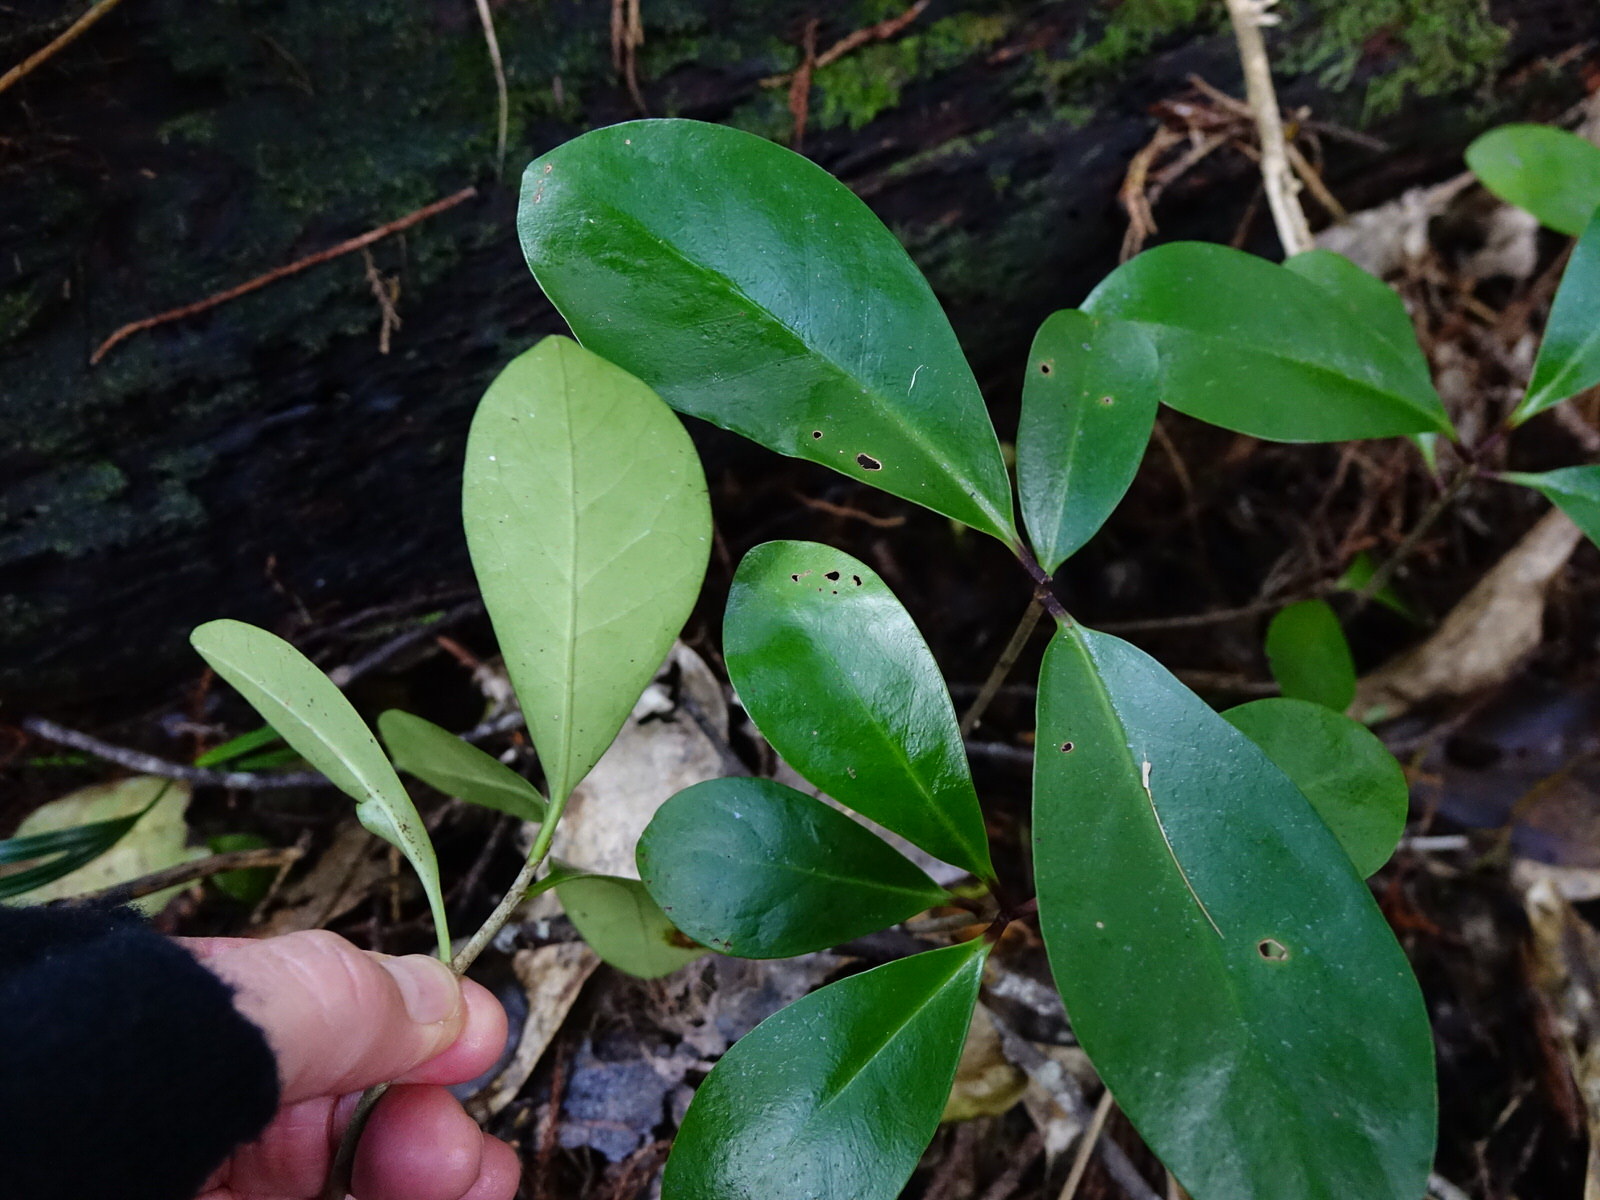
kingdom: Plantae
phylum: Tracheophyta
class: Magnoliopsida
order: Cucurbitales
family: Corynocarpaceae
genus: Corynocarpus
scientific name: Corynocarpus laevigatus
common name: New zealand laurel
